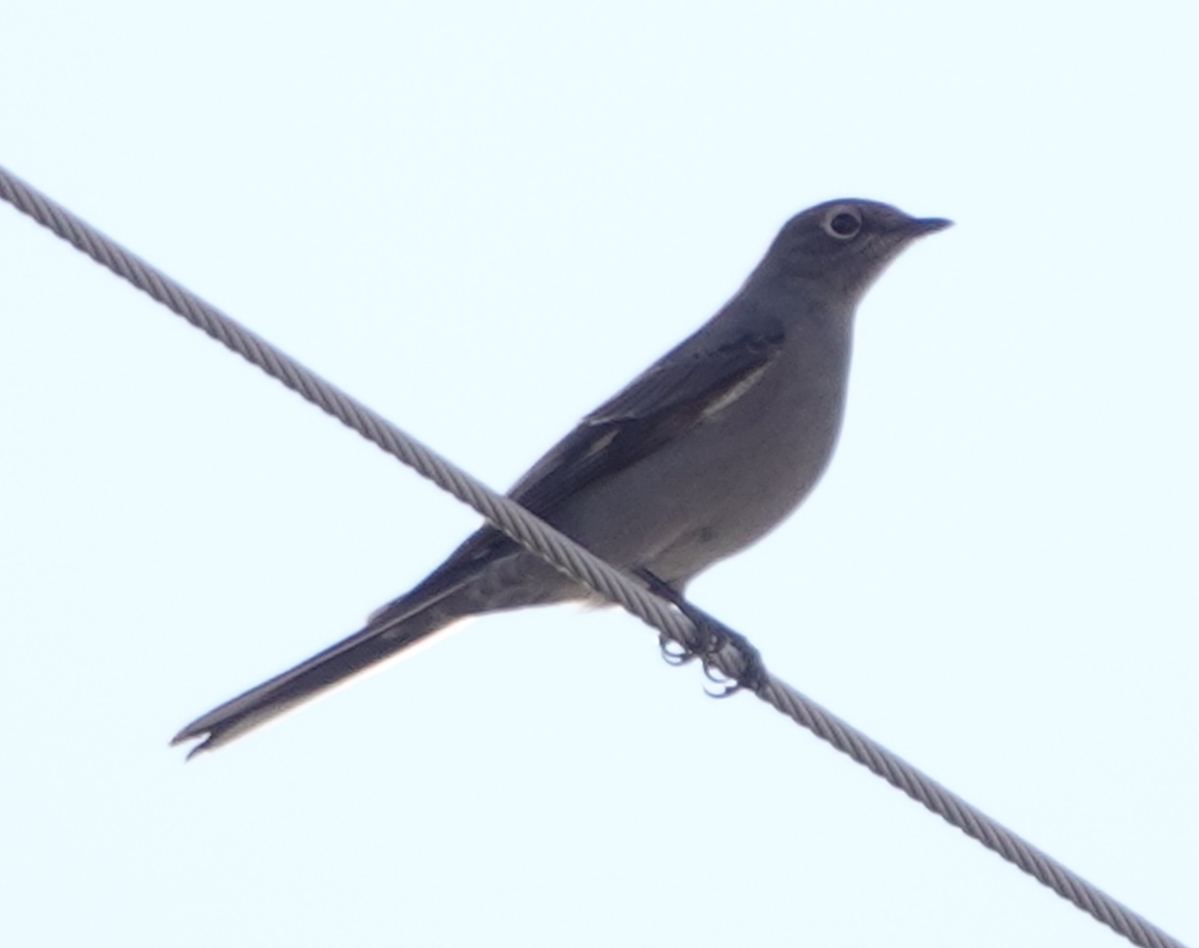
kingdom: Animalia
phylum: Chordata
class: Aves
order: Passeriformes
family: Turdidae
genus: Myadestes
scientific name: Myadestes townsendi
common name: Townsend's solitaire
